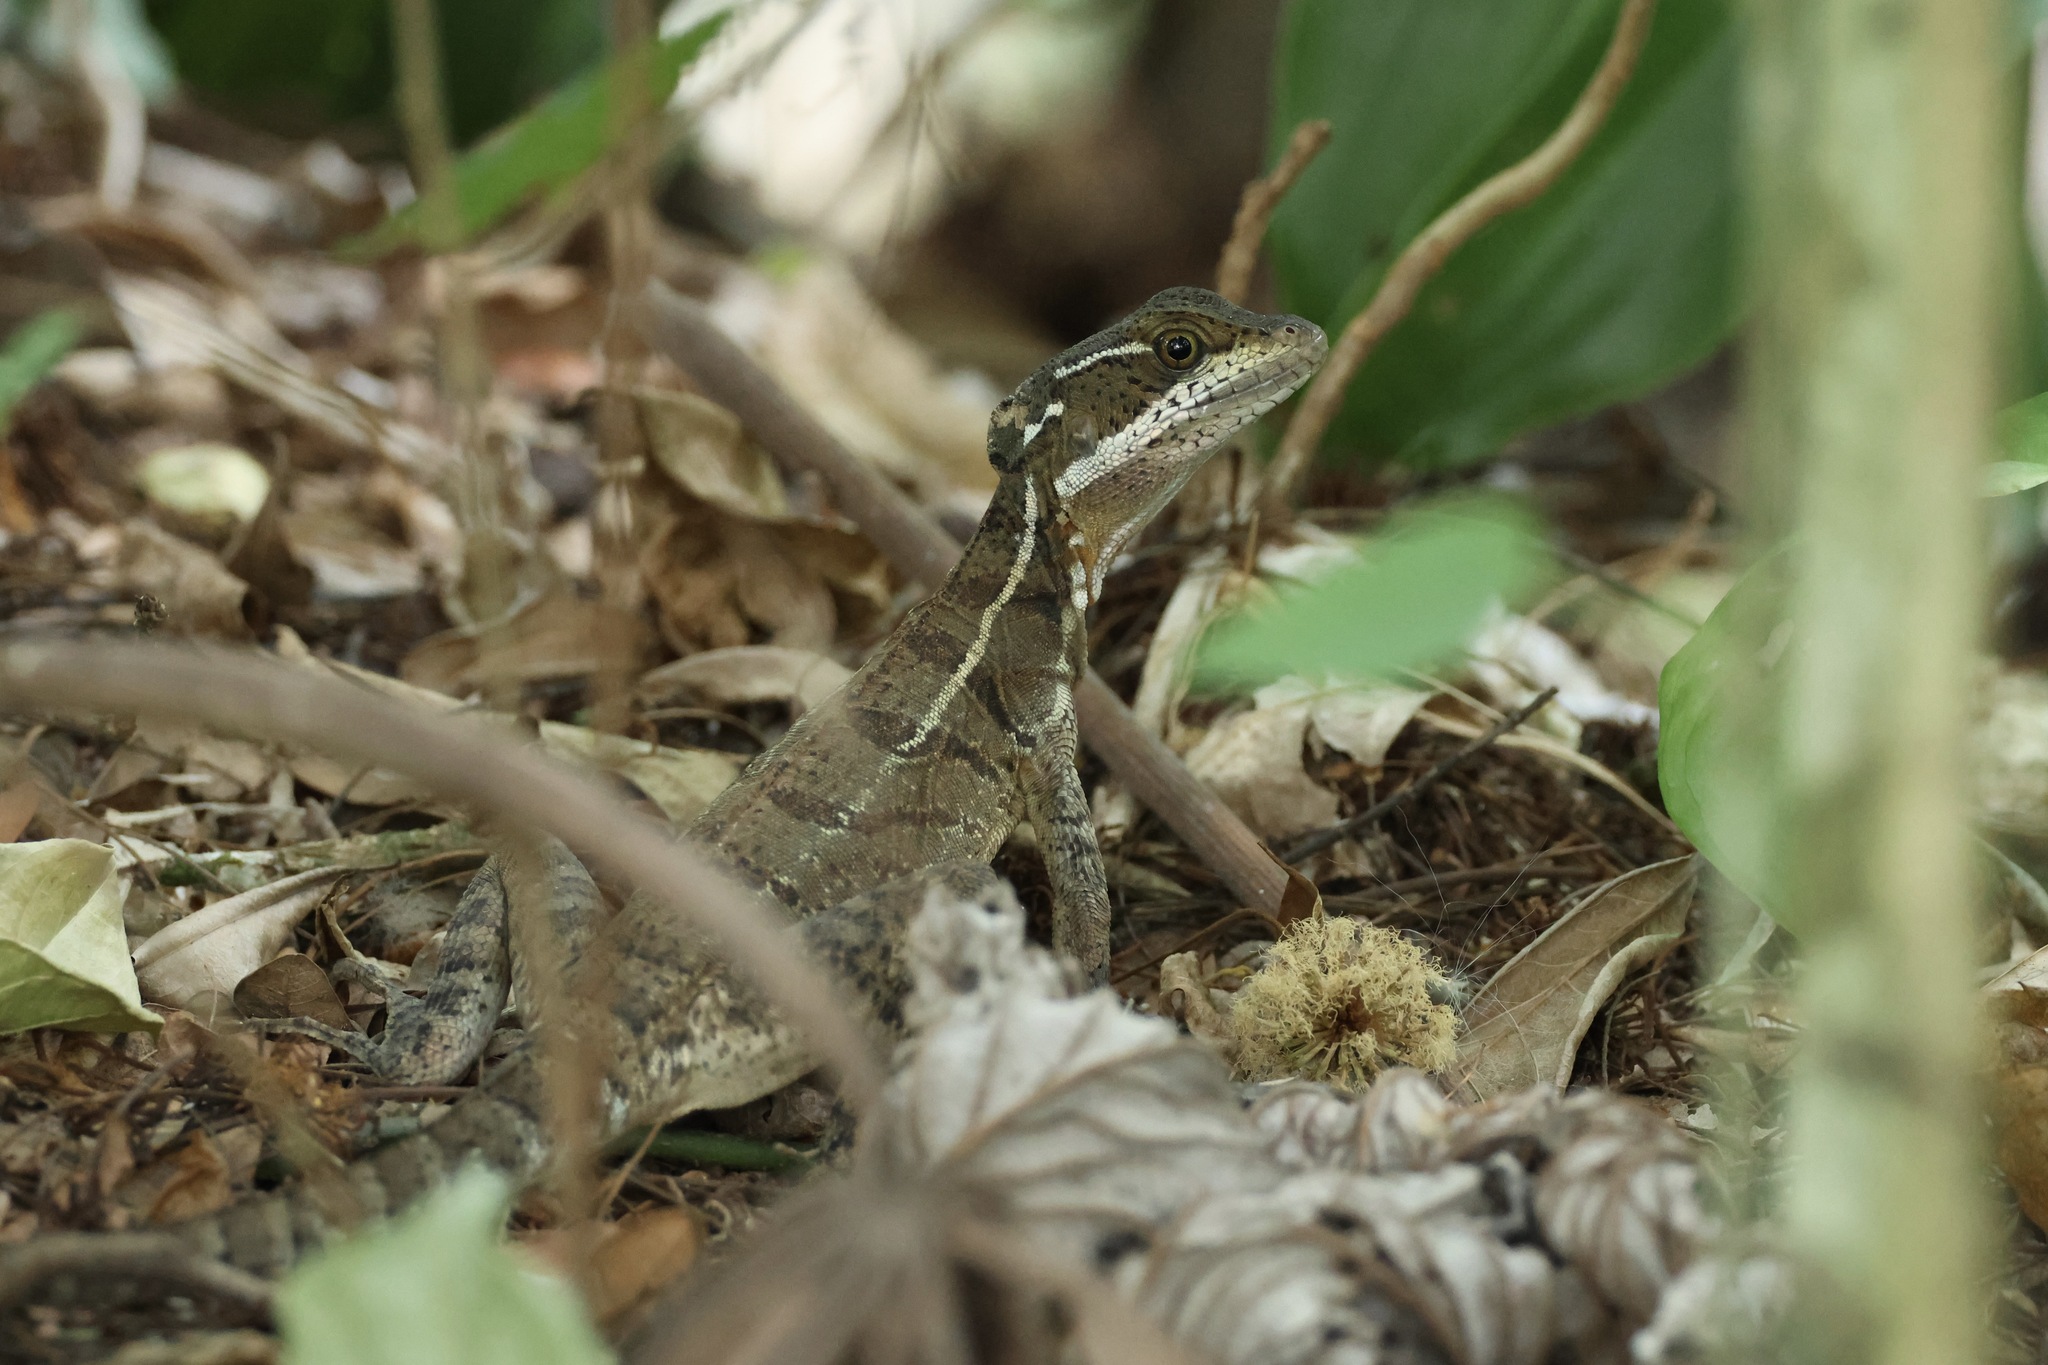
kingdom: Animalia
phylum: Chordata
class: Squamata
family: Corytophanidae
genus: Basiliscus
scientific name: Basiliscus basiliscus
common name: Common basilisk
